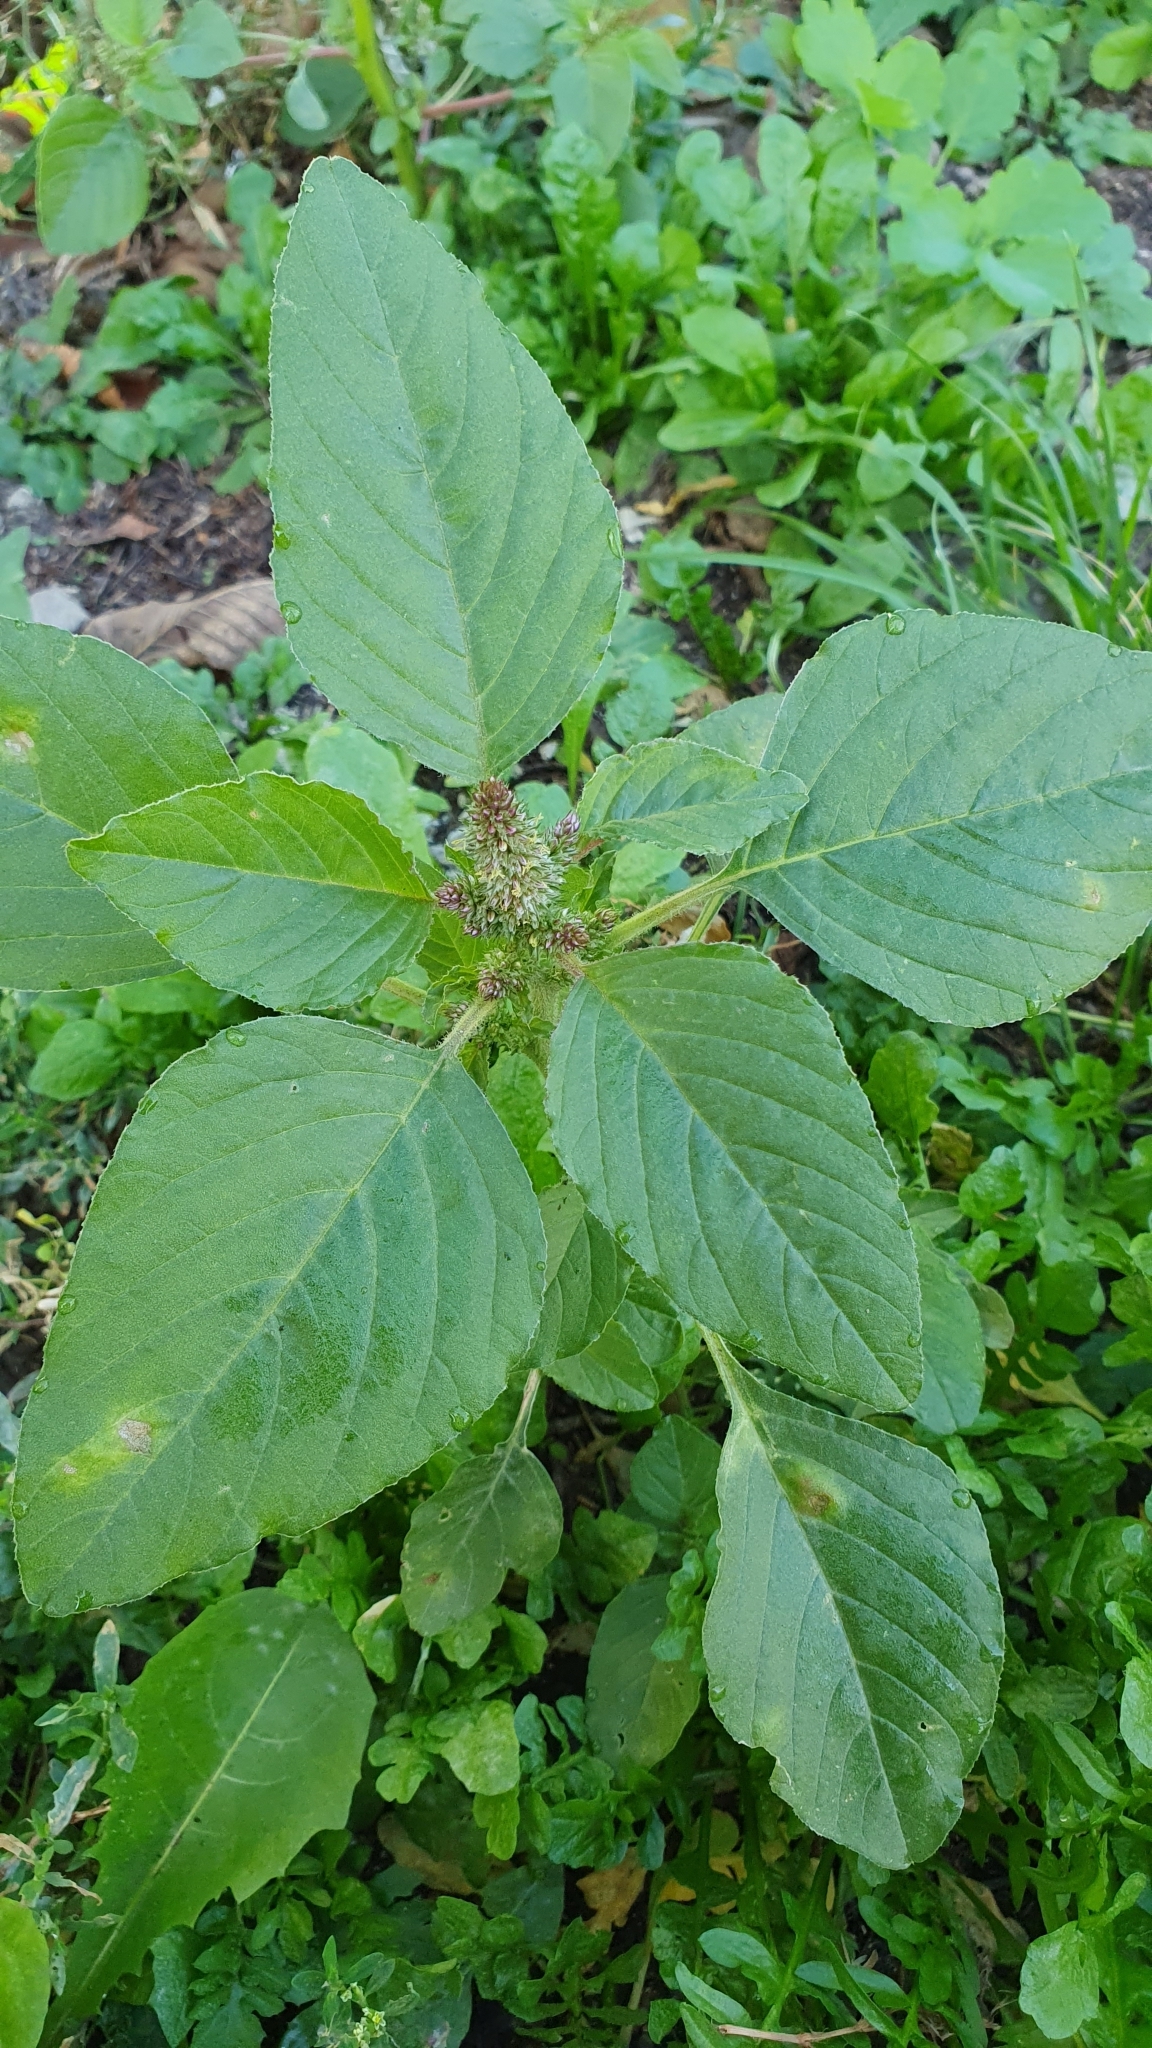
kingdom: Plantae
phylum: Tracheophyta
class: Magnoliopsida
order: Caryophyllales
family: Amaranthaceae
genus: Amaranthus
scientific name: Amaranthus retroflexus
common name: Redroot amaranth
